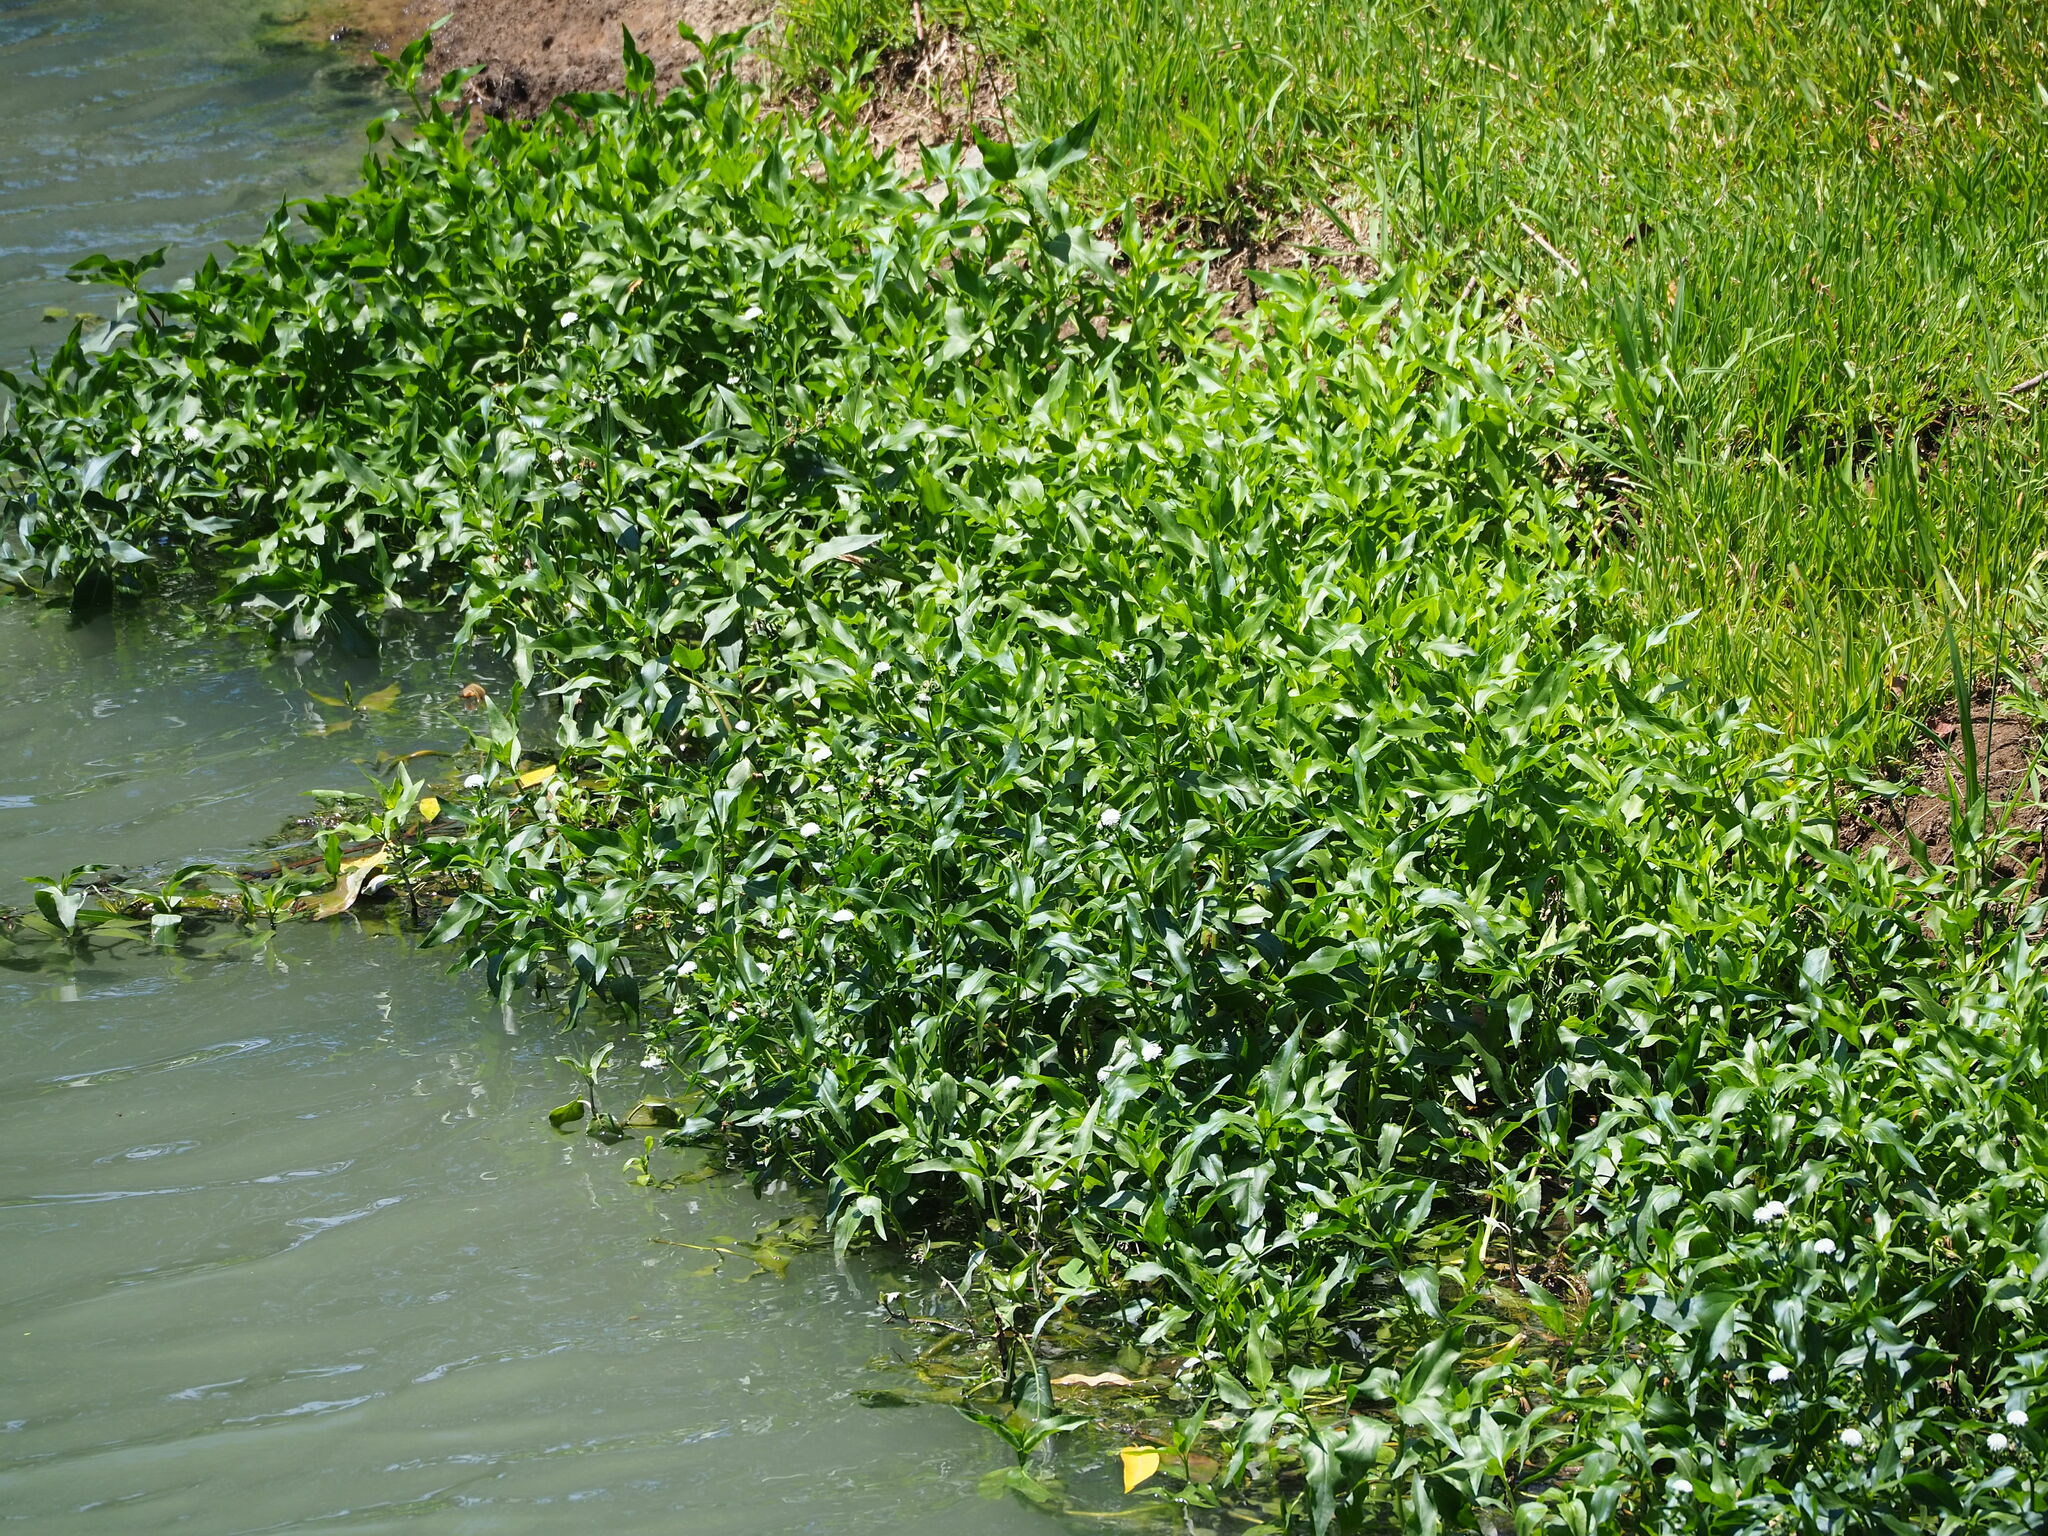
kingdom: Plantae
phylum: Tracheophyta
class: Magnoliopsida
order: Asterales
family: Asteraceae
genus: Gymnocoronis
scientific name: Gymnocoronis spilanthoides
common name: Senegal teaplant
